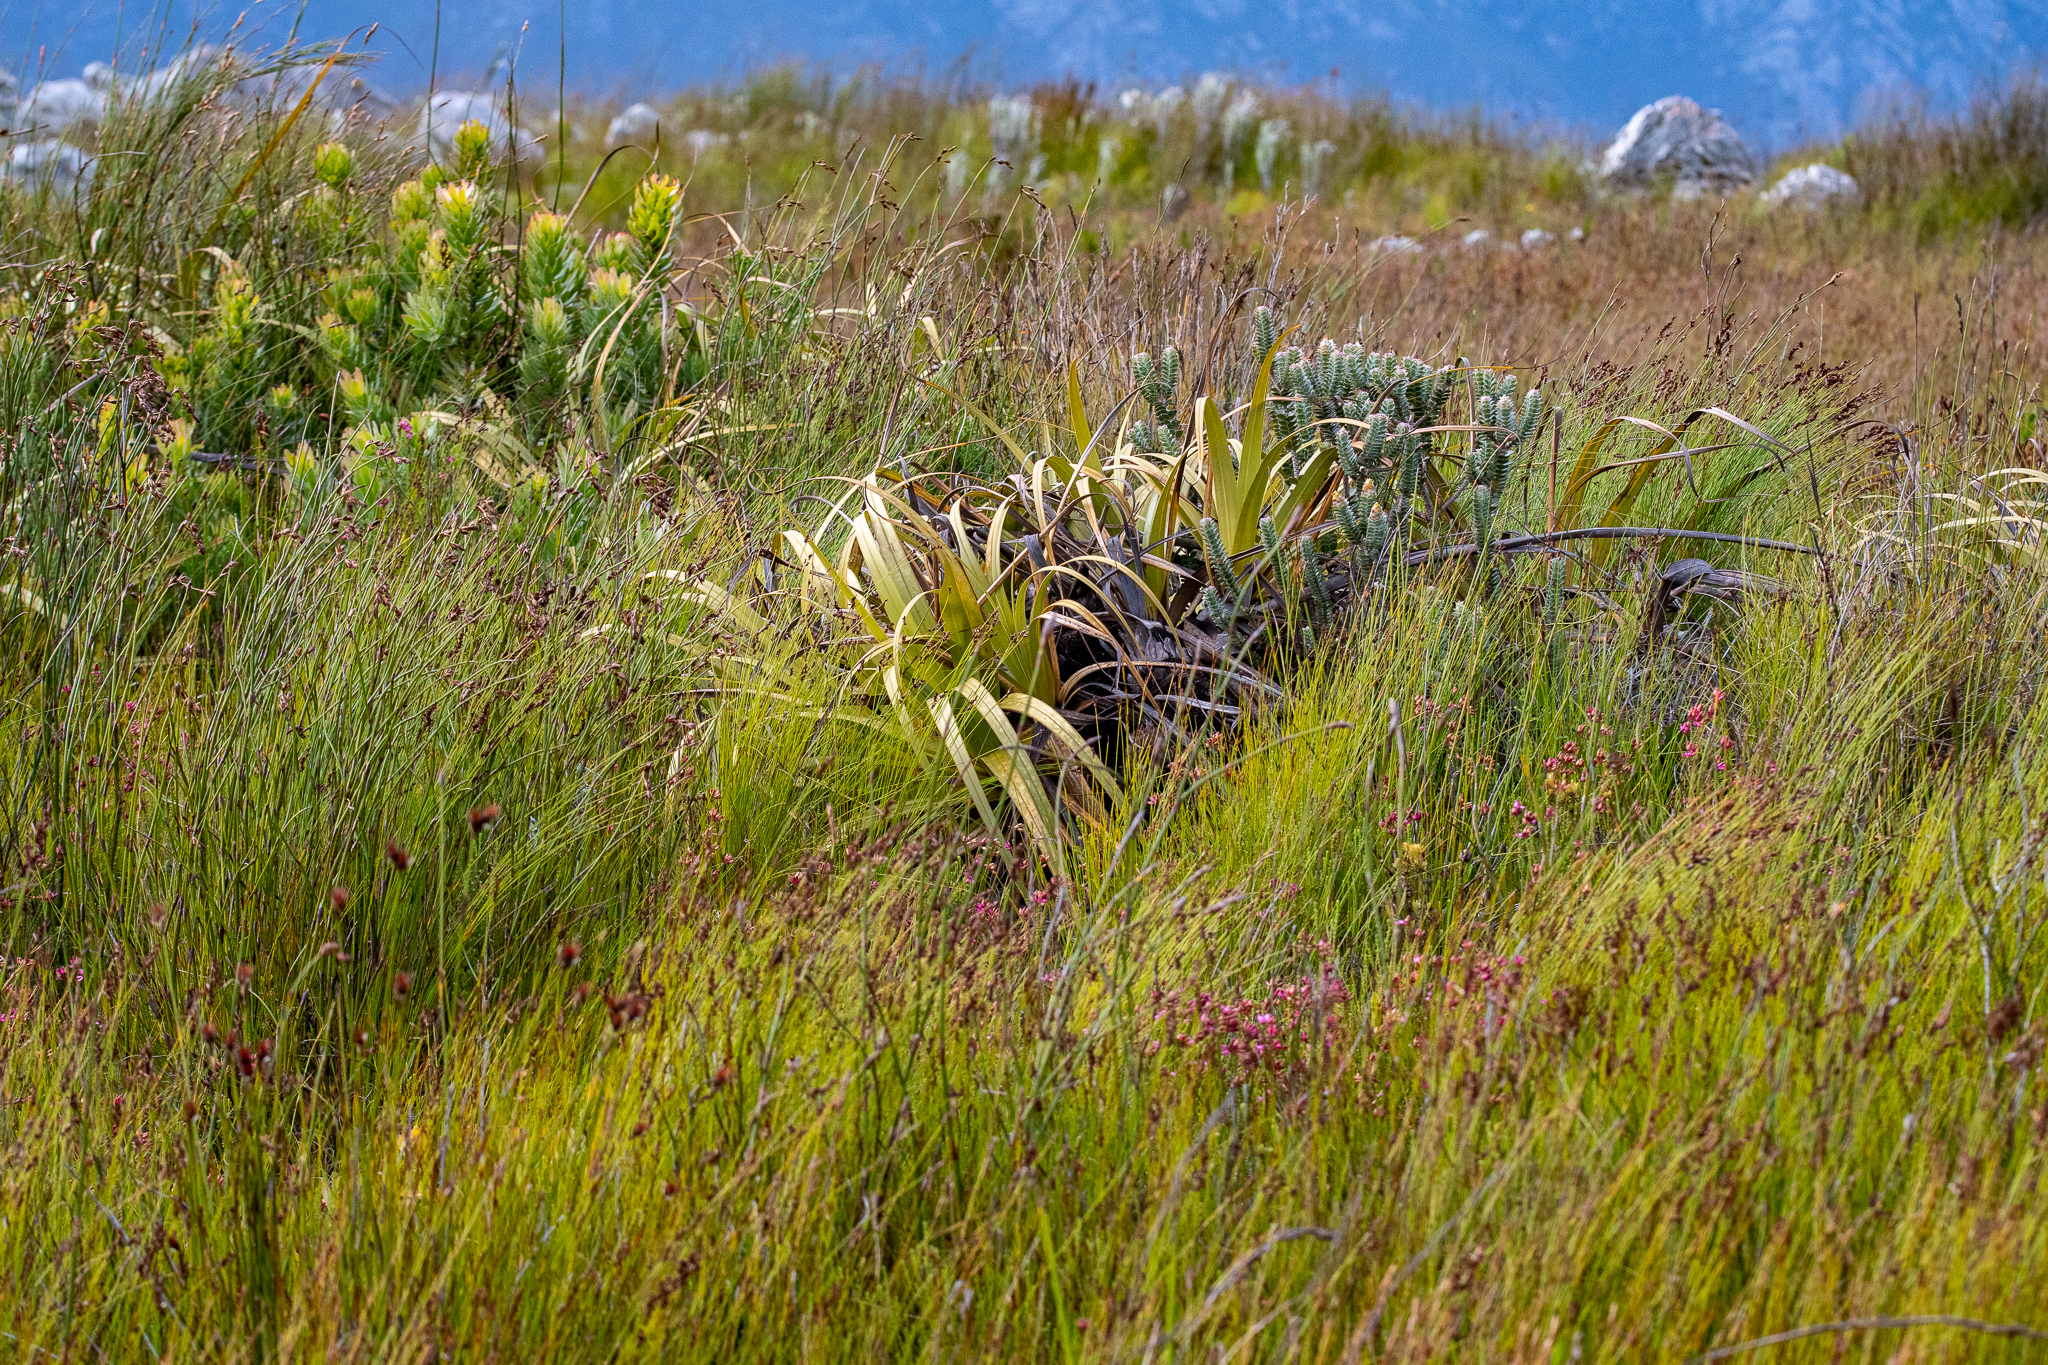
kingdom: Plantae
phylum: Tracheophyta
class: Liliopsida
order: Poales
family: Cyperaceae
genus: Tetraria
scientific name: Tetraria thermalis
